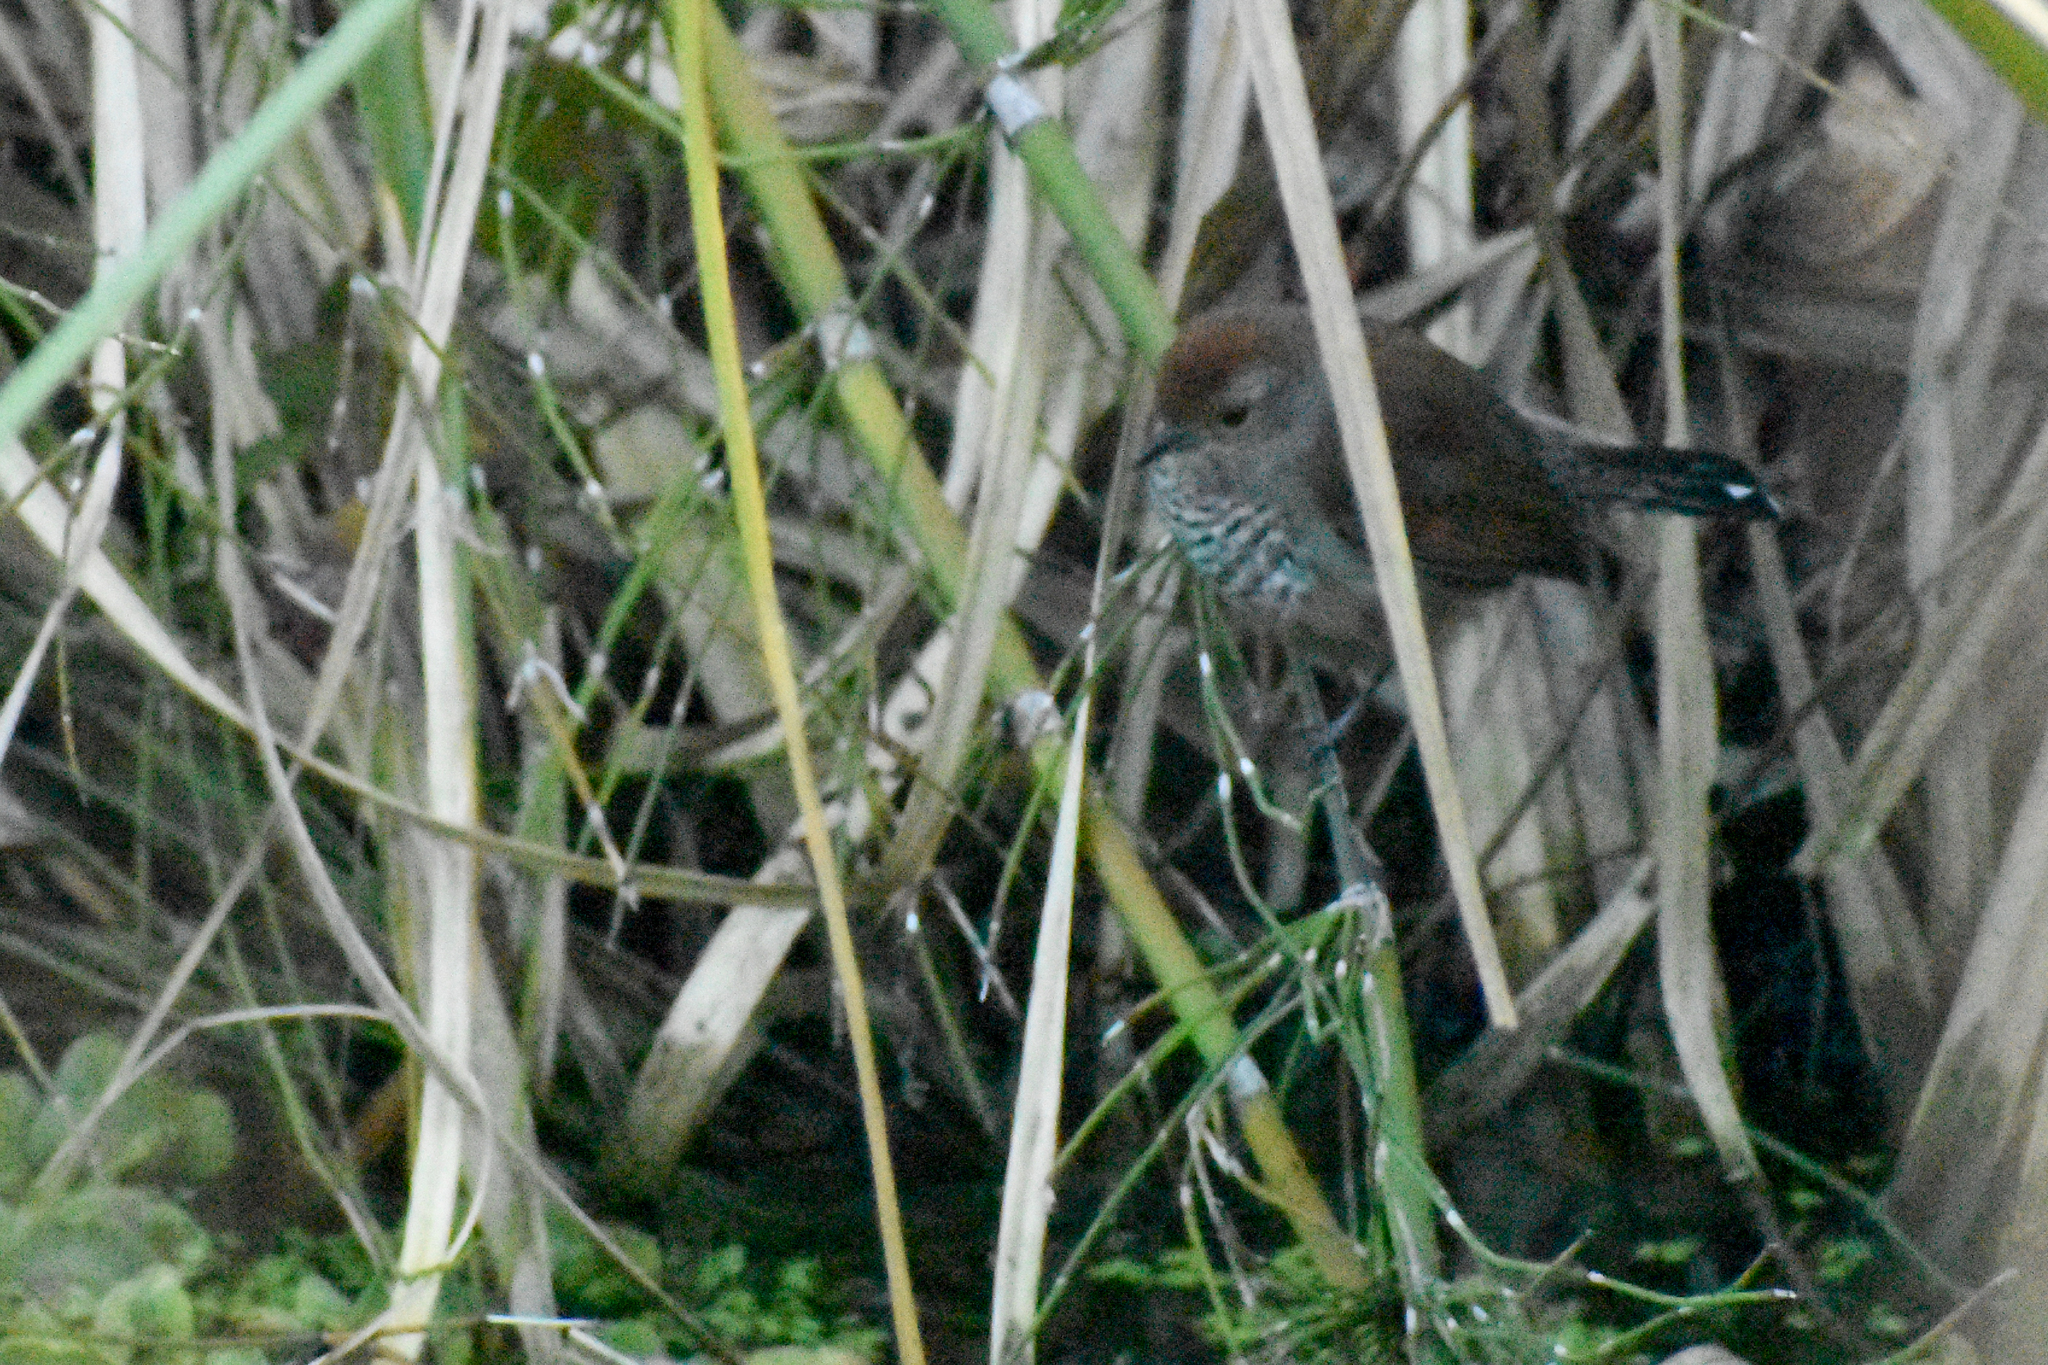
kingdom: Animalia
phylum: Chordata
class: Aves
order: Passeriformes
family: Thamnophilidae
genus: Thamnophilus
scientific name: Thamnophilus ruficapillus
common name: Rufous-capped antshrike
